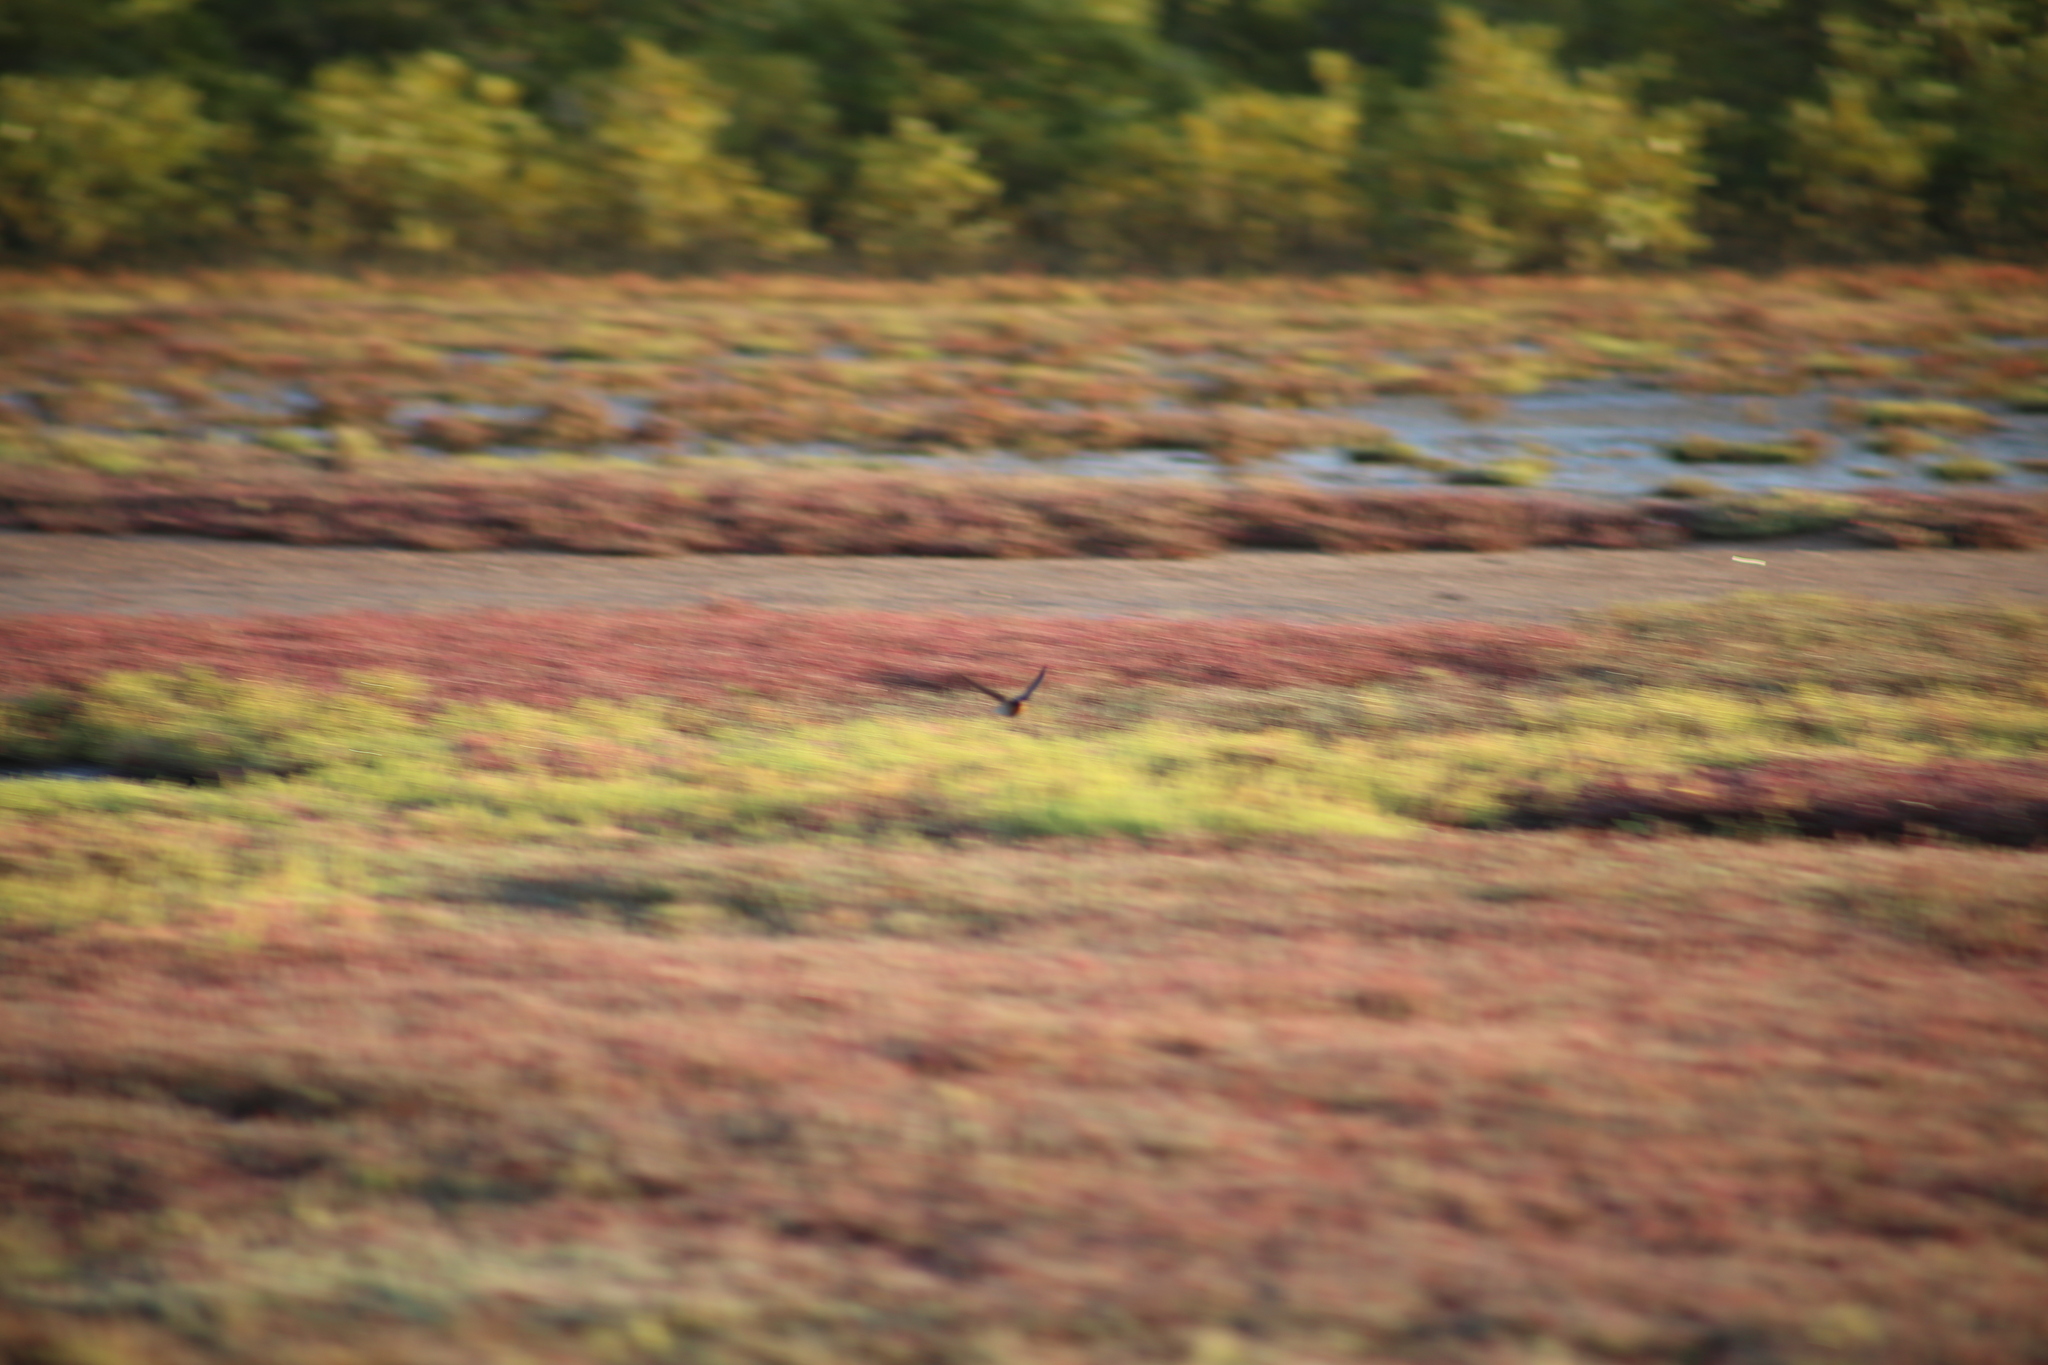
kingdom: Animalia
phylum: Chordata
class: Aves
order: Passeriformes
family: Hirundinidae
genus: Hirundo
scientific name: Hirundo neoxena
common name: Welcome swallow
